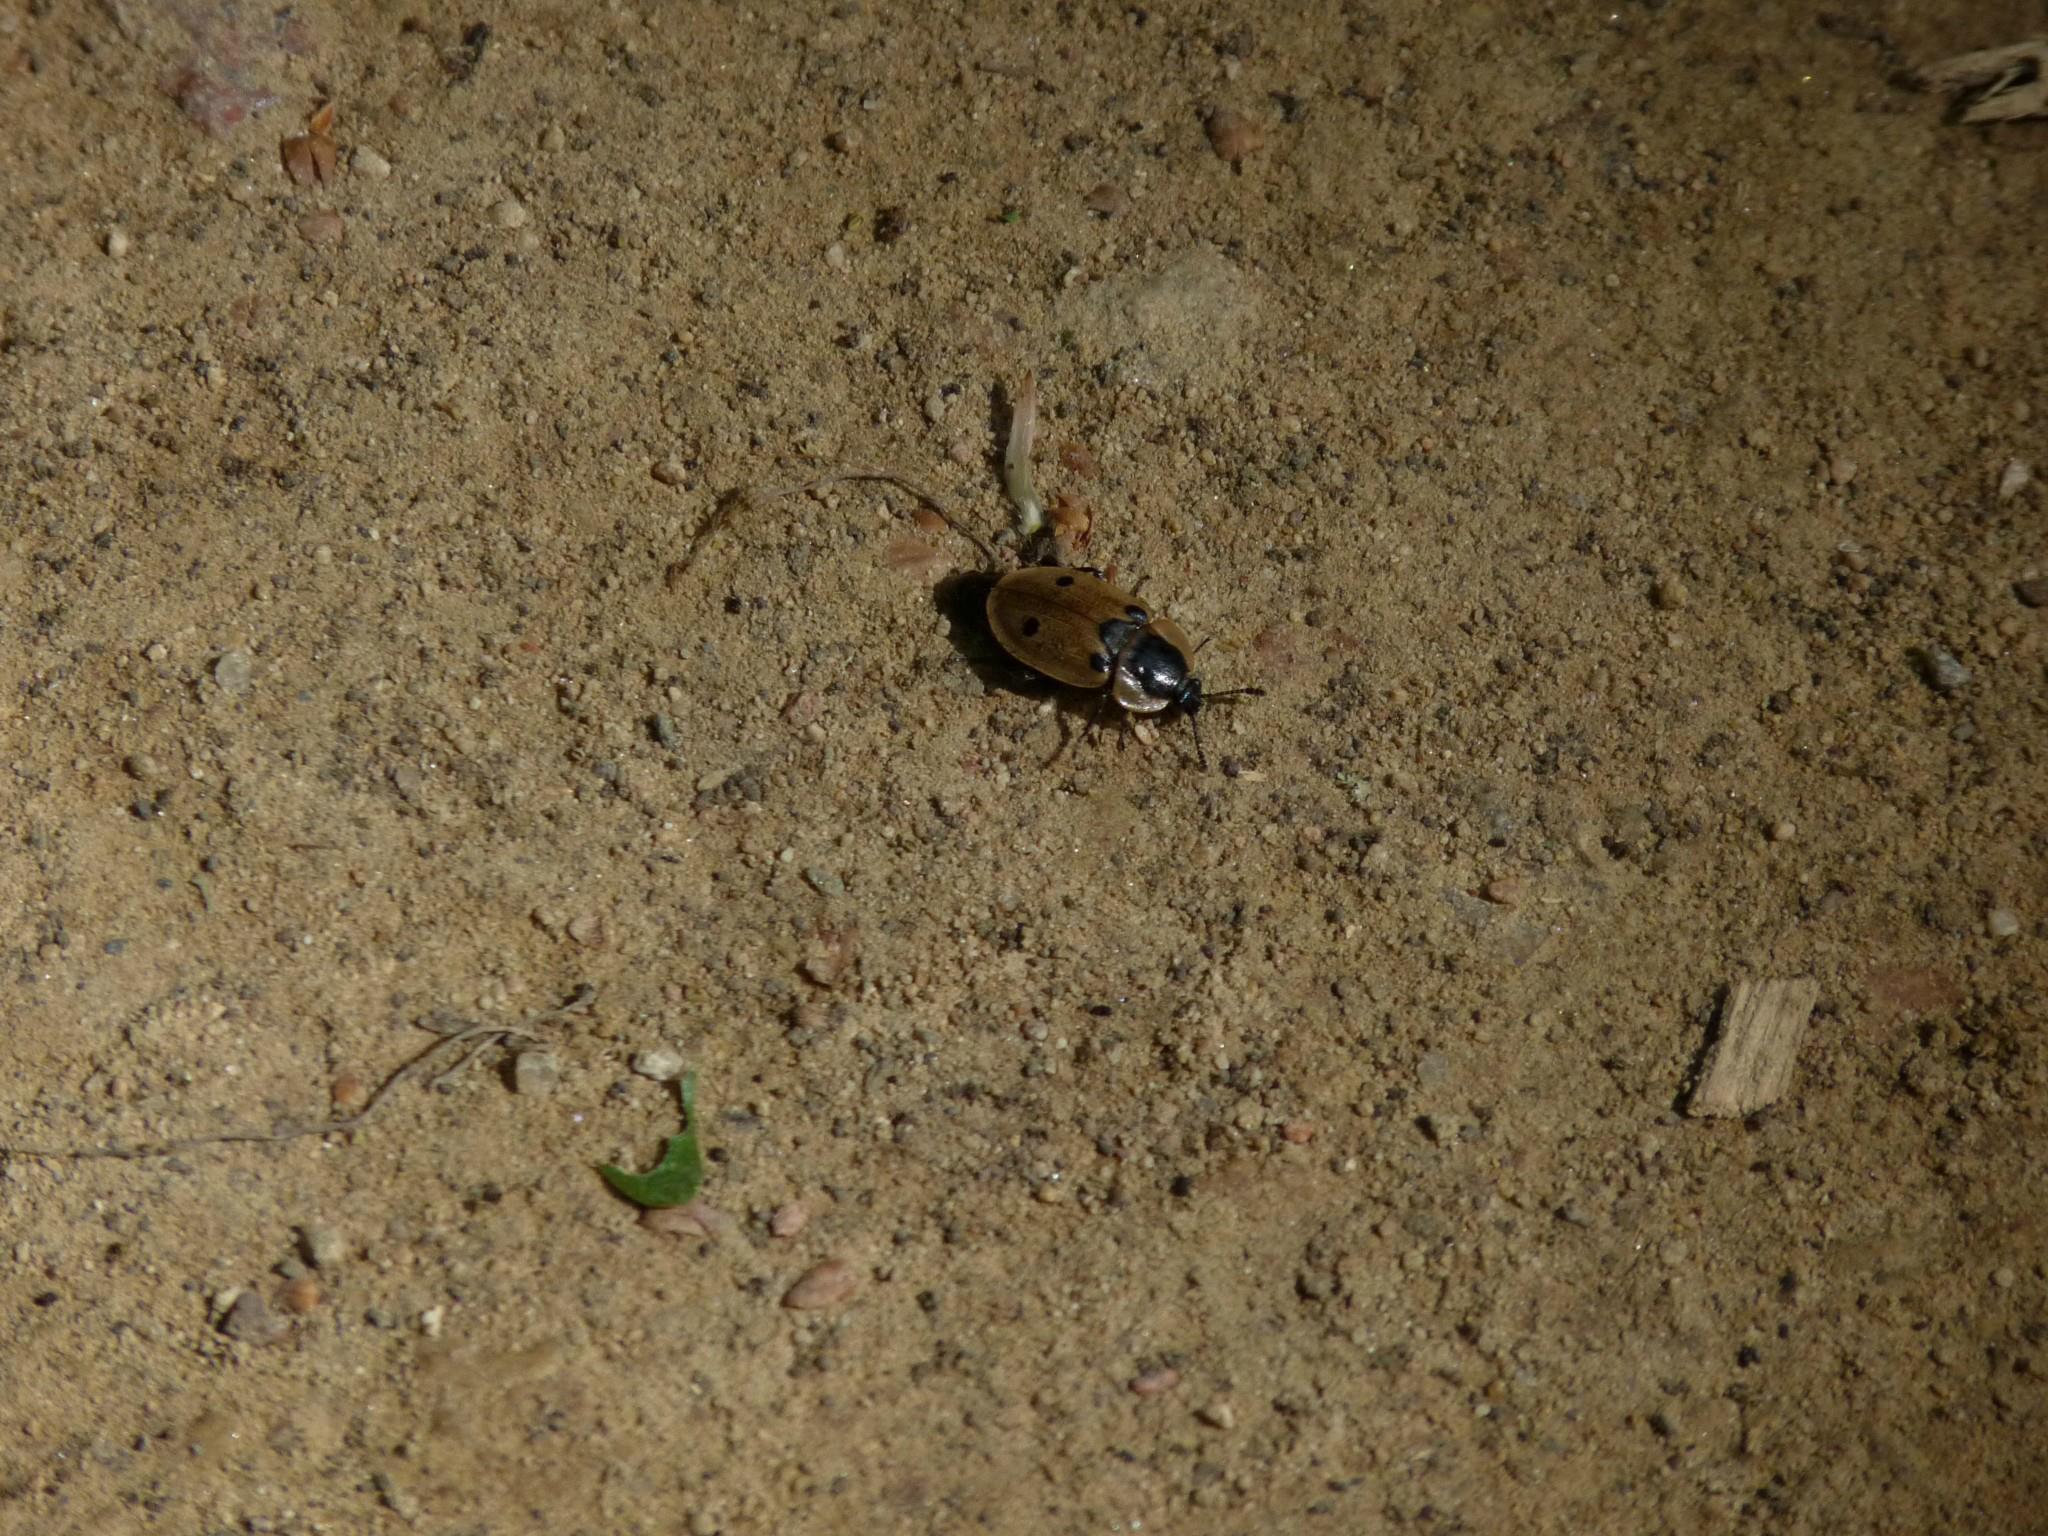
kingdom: Animalia
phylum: Arthropoda
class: Insecta
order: Coleoptera
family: Staphylinidae
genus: Dendroxena
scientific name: Dendroxena quadrimaculata
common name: Carrion beetle
